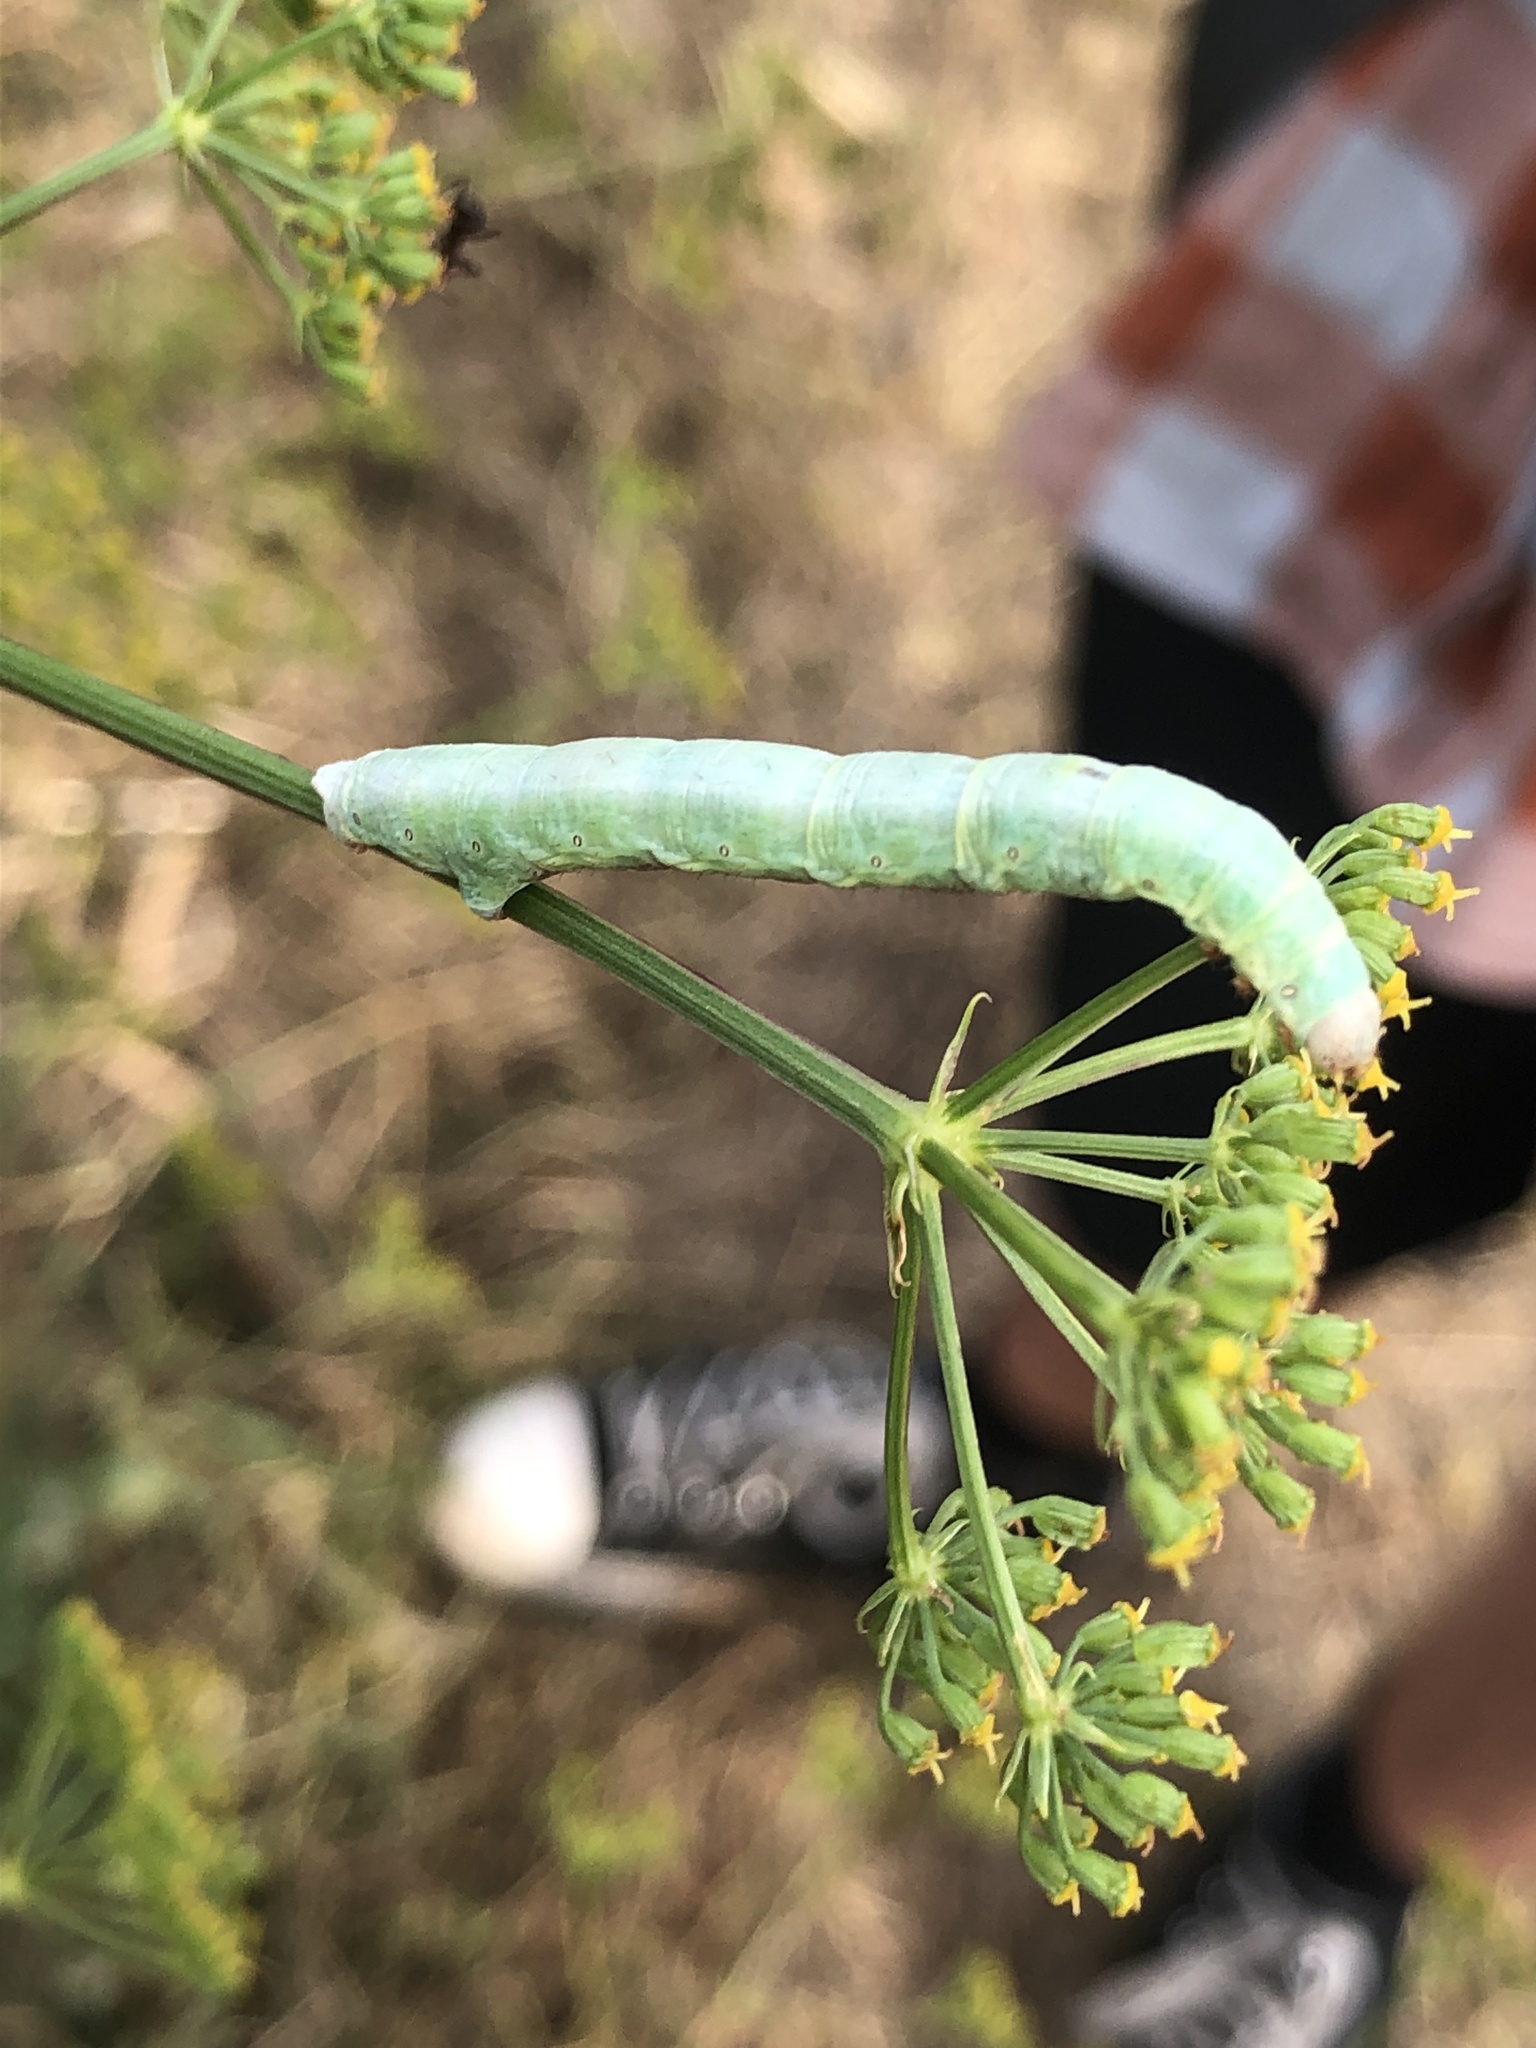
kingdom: Animalia
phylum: Arthropoda
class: Insecta
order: Lepidoptera
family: Geometridae
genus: Ascotis
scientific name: Ascotis selenaria
